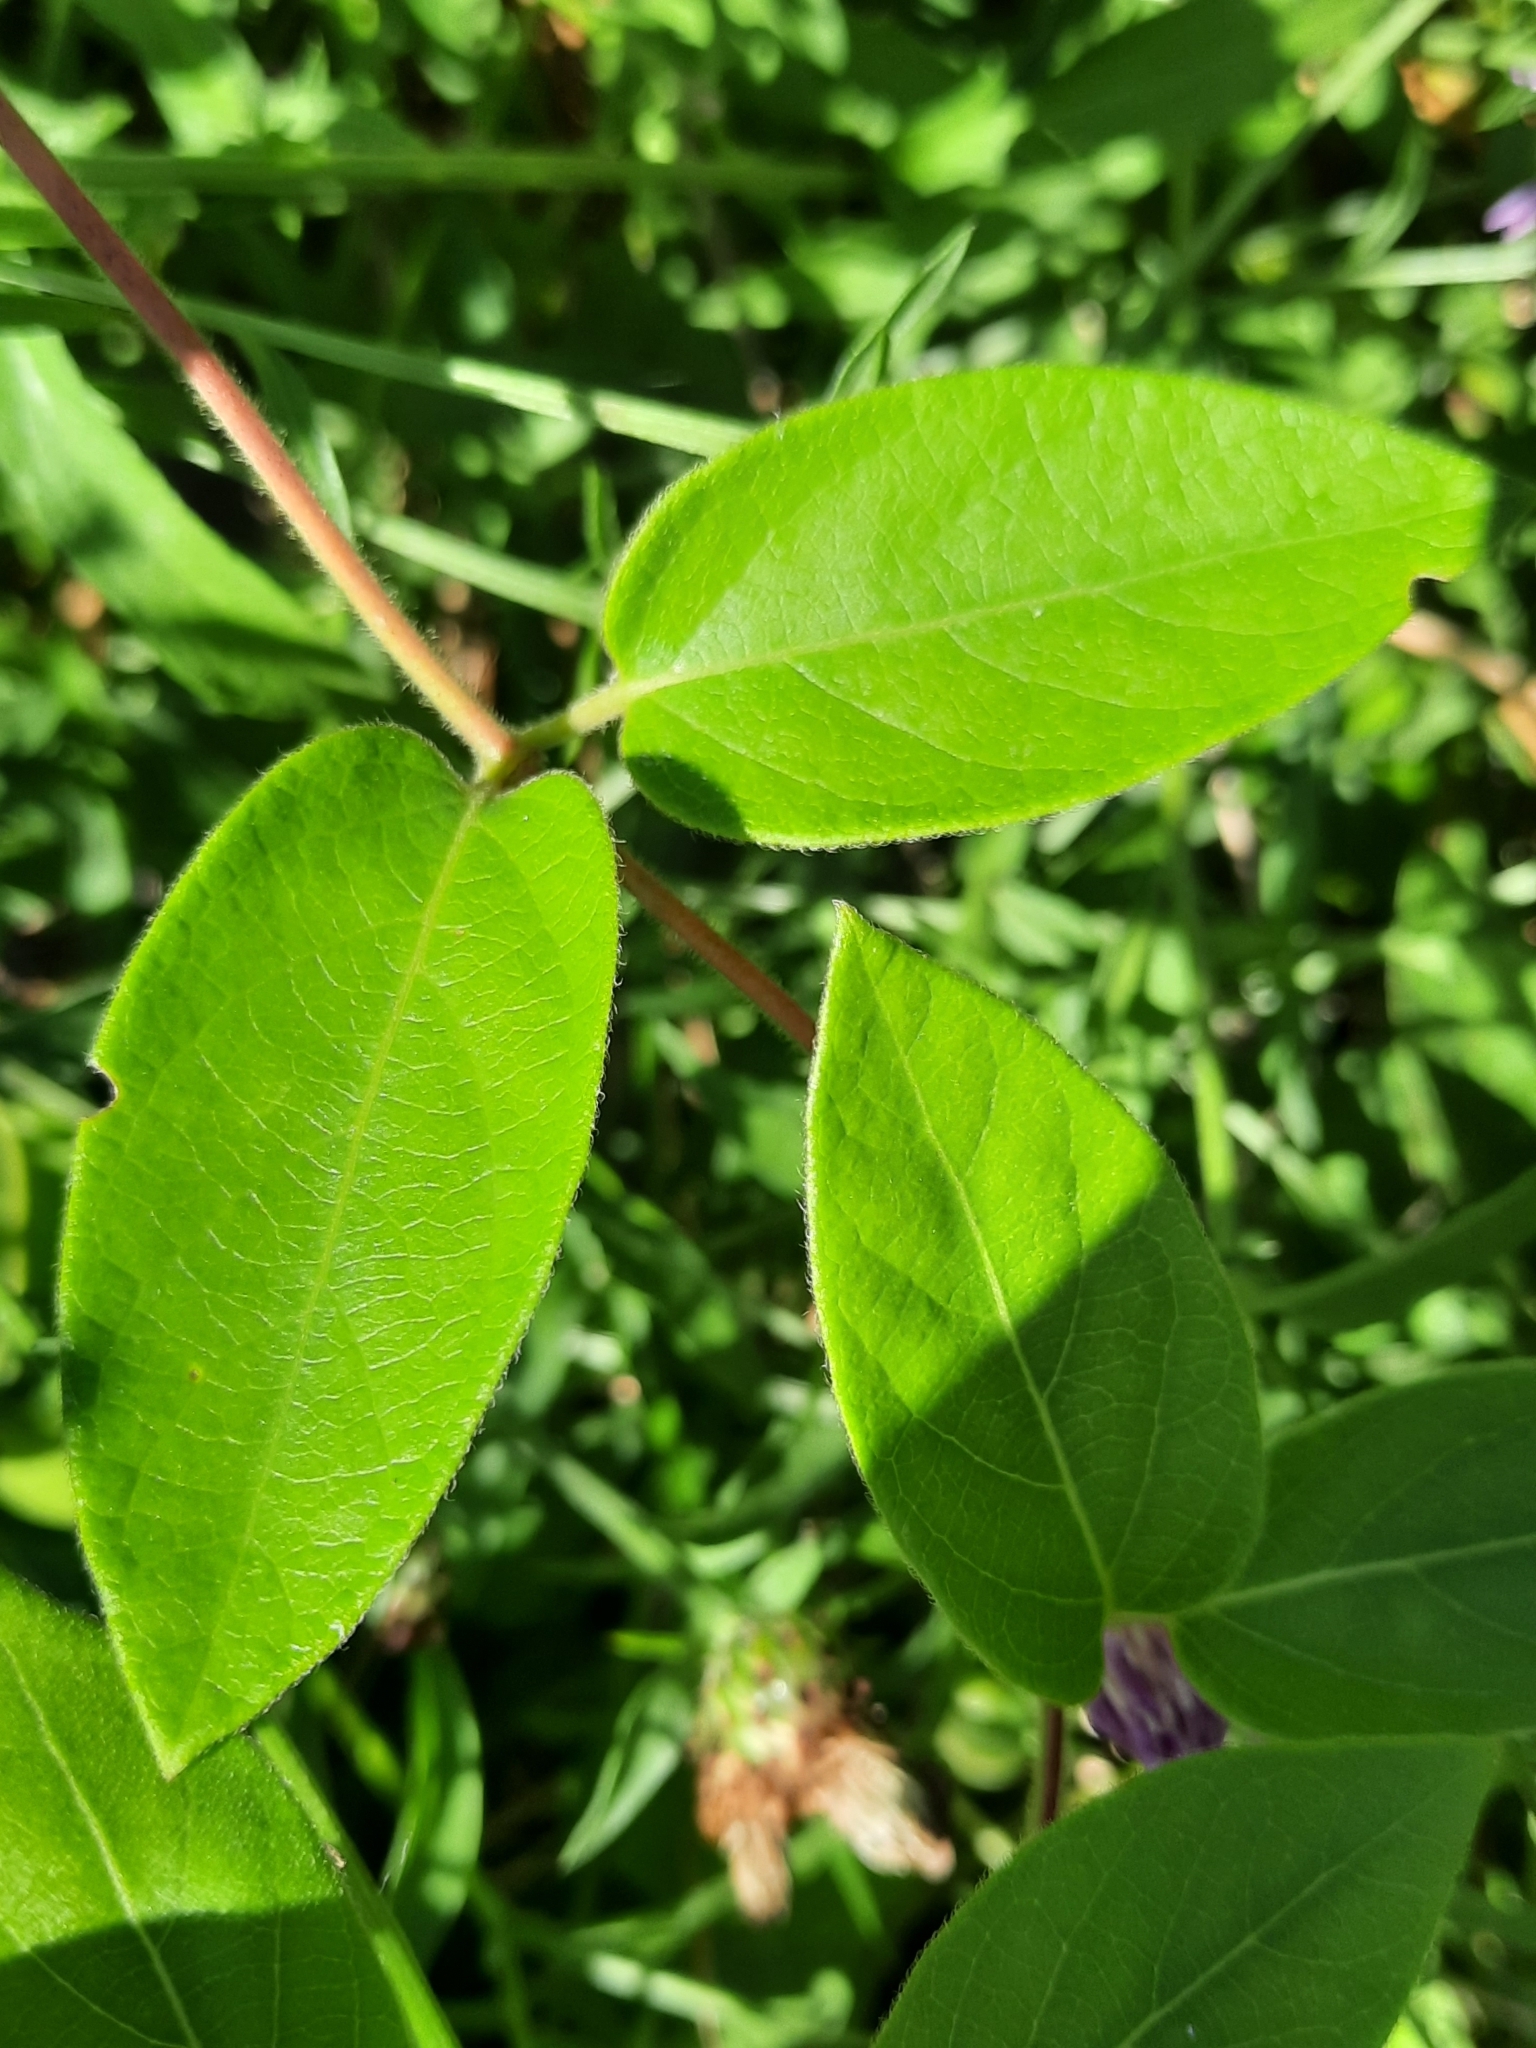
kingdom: Plantae
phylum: Tracheophyta
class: Magnoliopsida
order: Dipsacales
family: Caprifoliaceae
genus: Lonicera
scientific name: Lonicera japonica
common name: Japanese honeysuckle
